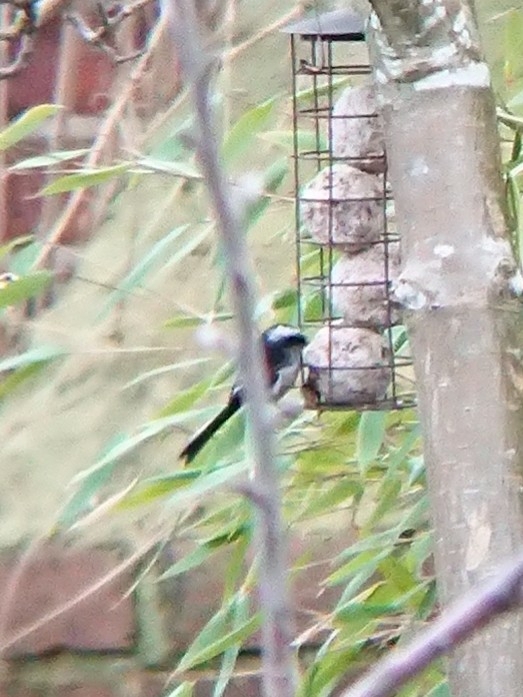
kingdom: Animalia
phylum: Chordata
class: Aves
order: Passeriformes
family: Aegithalidae
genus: Aegithalos
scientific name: Aegithalos caudatus
